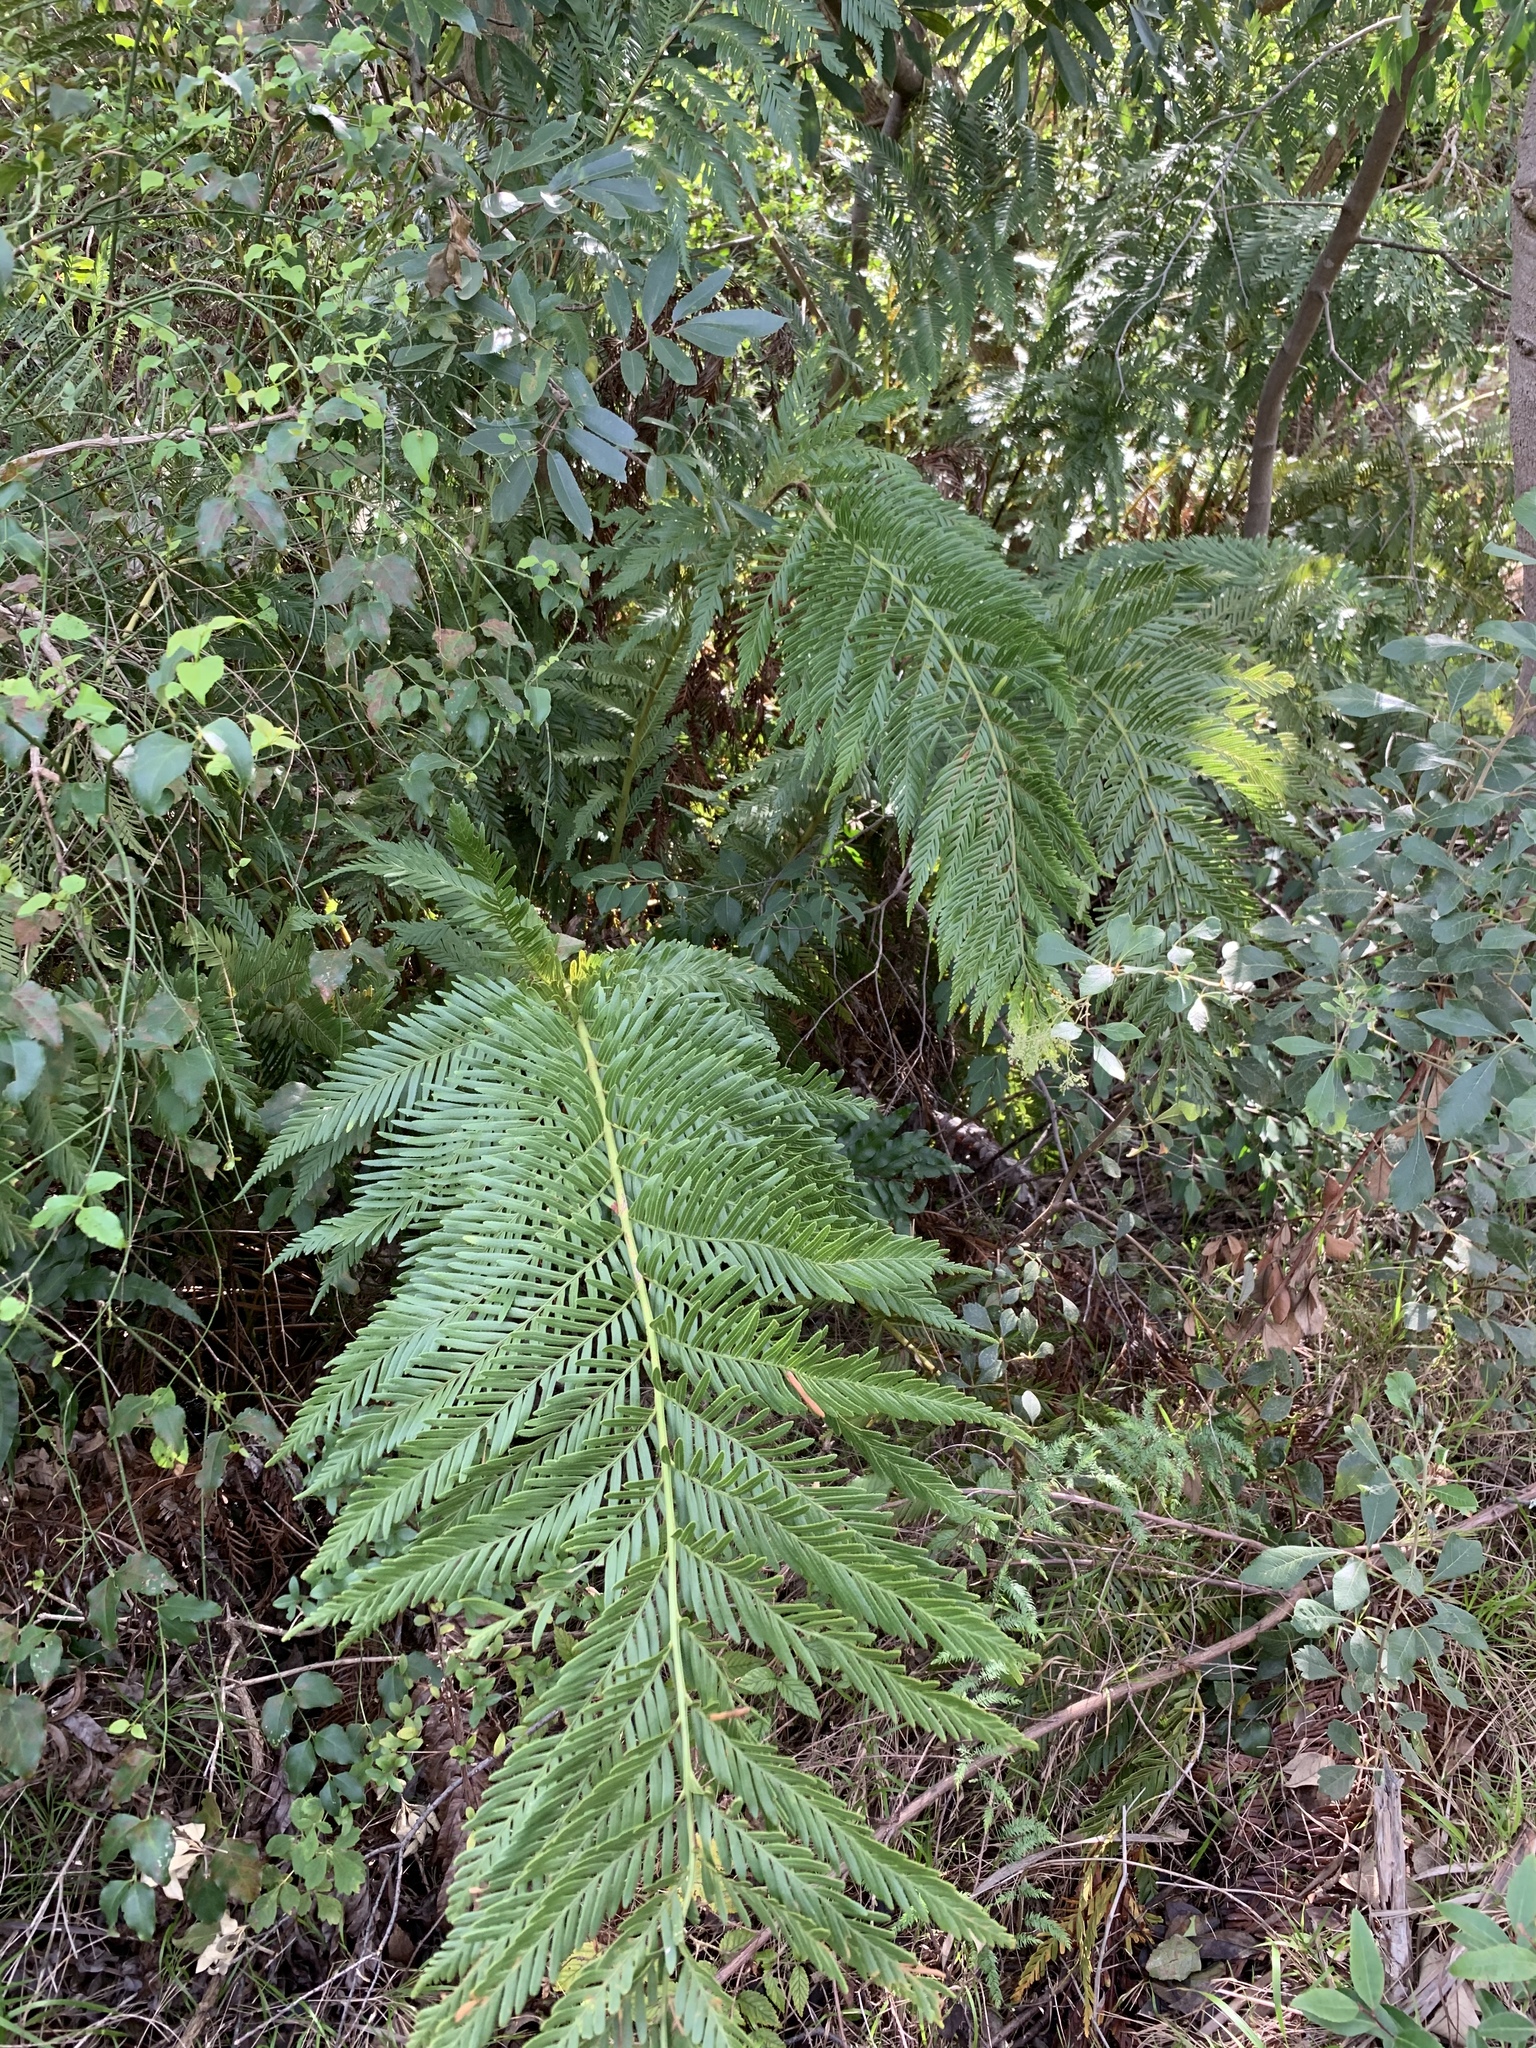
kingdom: Plantae
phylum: Tracheophyta
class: Polypodiopsida
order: Osmundales
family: Osmundaceae
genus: Todea
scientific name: Todea barbara
